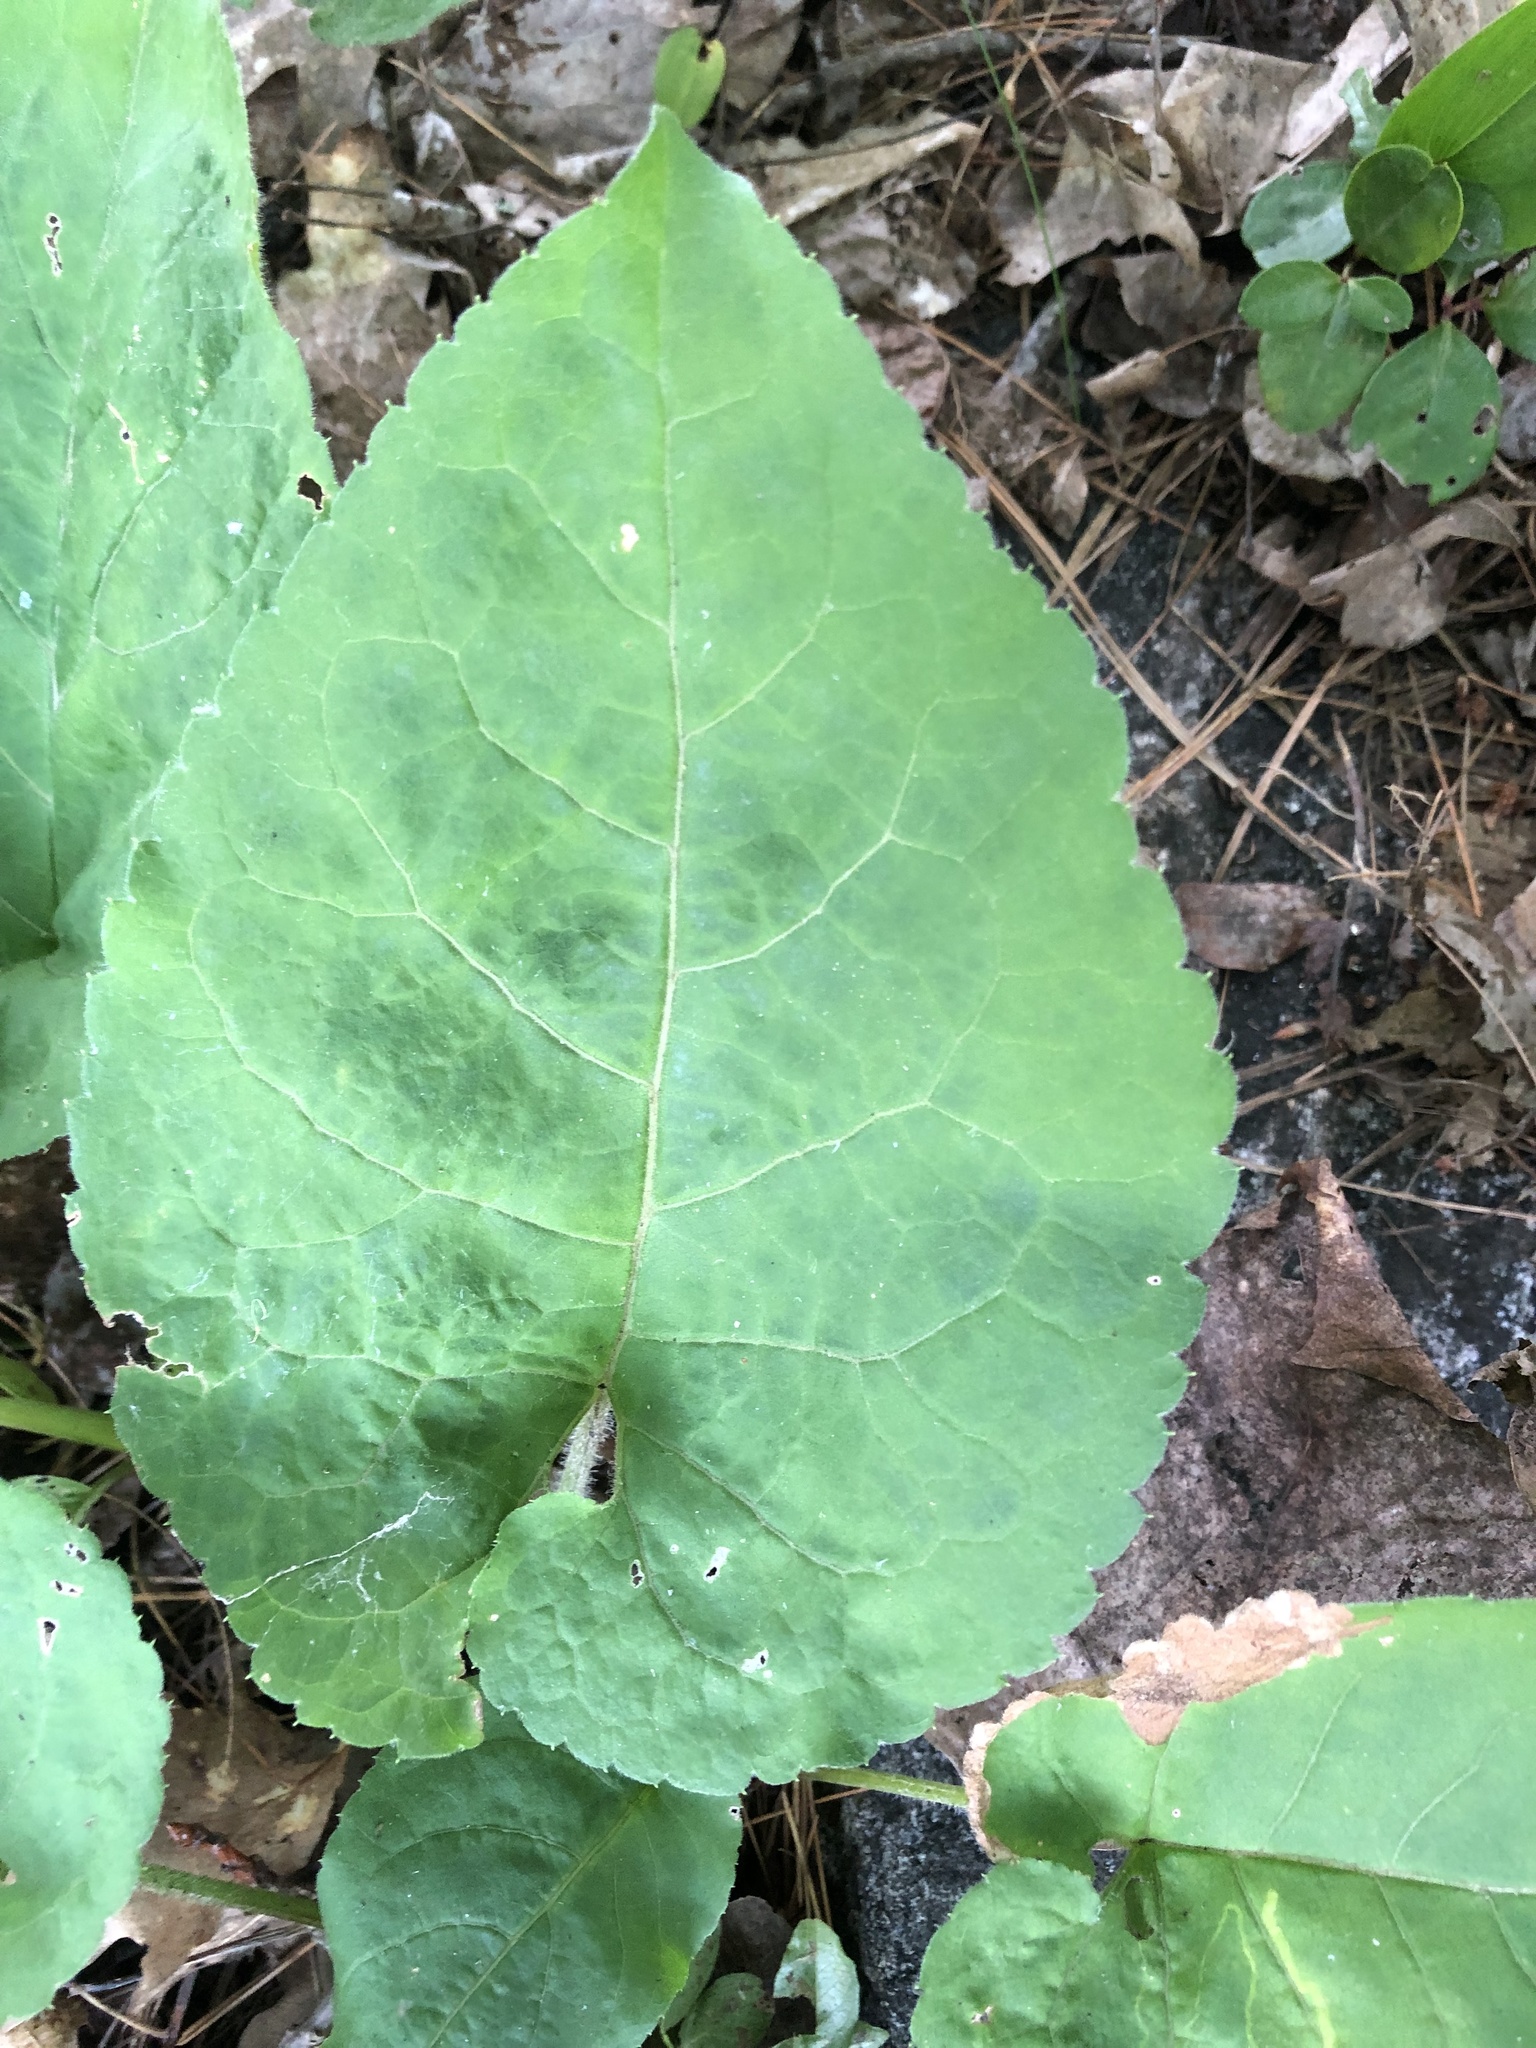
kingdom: Plantae
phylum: Tracheophyta
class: Magnoliopsida
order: Asterales
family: Asteraceae
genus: Eurybia
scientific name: Eurybia macrophylla
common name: Big-leaved aster
